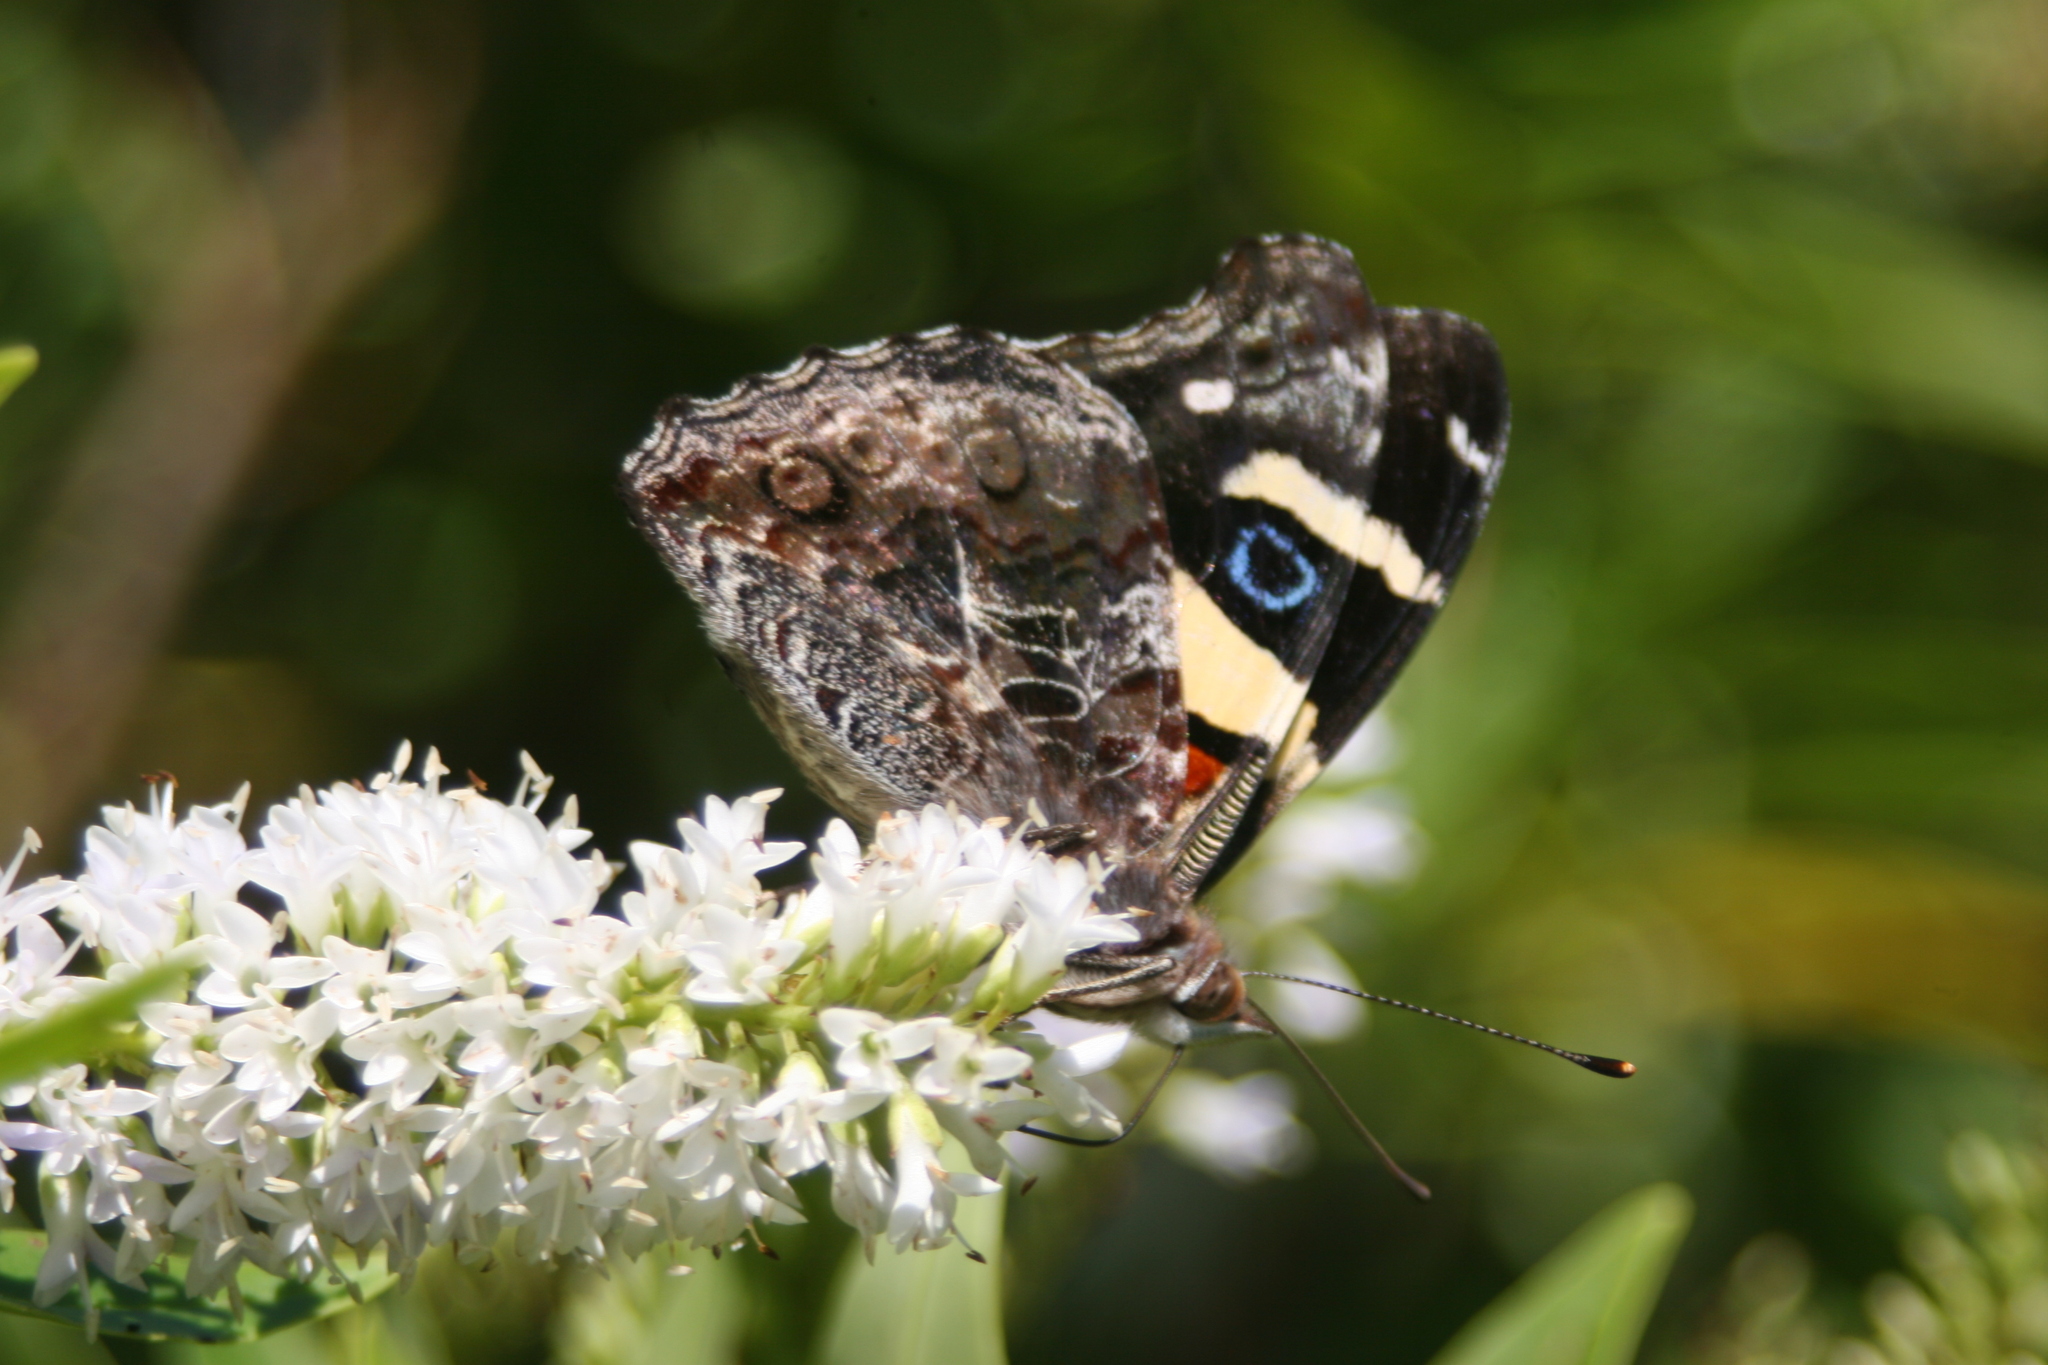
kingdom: Animalia
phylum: Arthropoda
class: Insecta
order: Lepidoptera
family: Nymphalidae
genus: Vanessa
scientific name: Vanessa itea
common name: Yellow admiral
